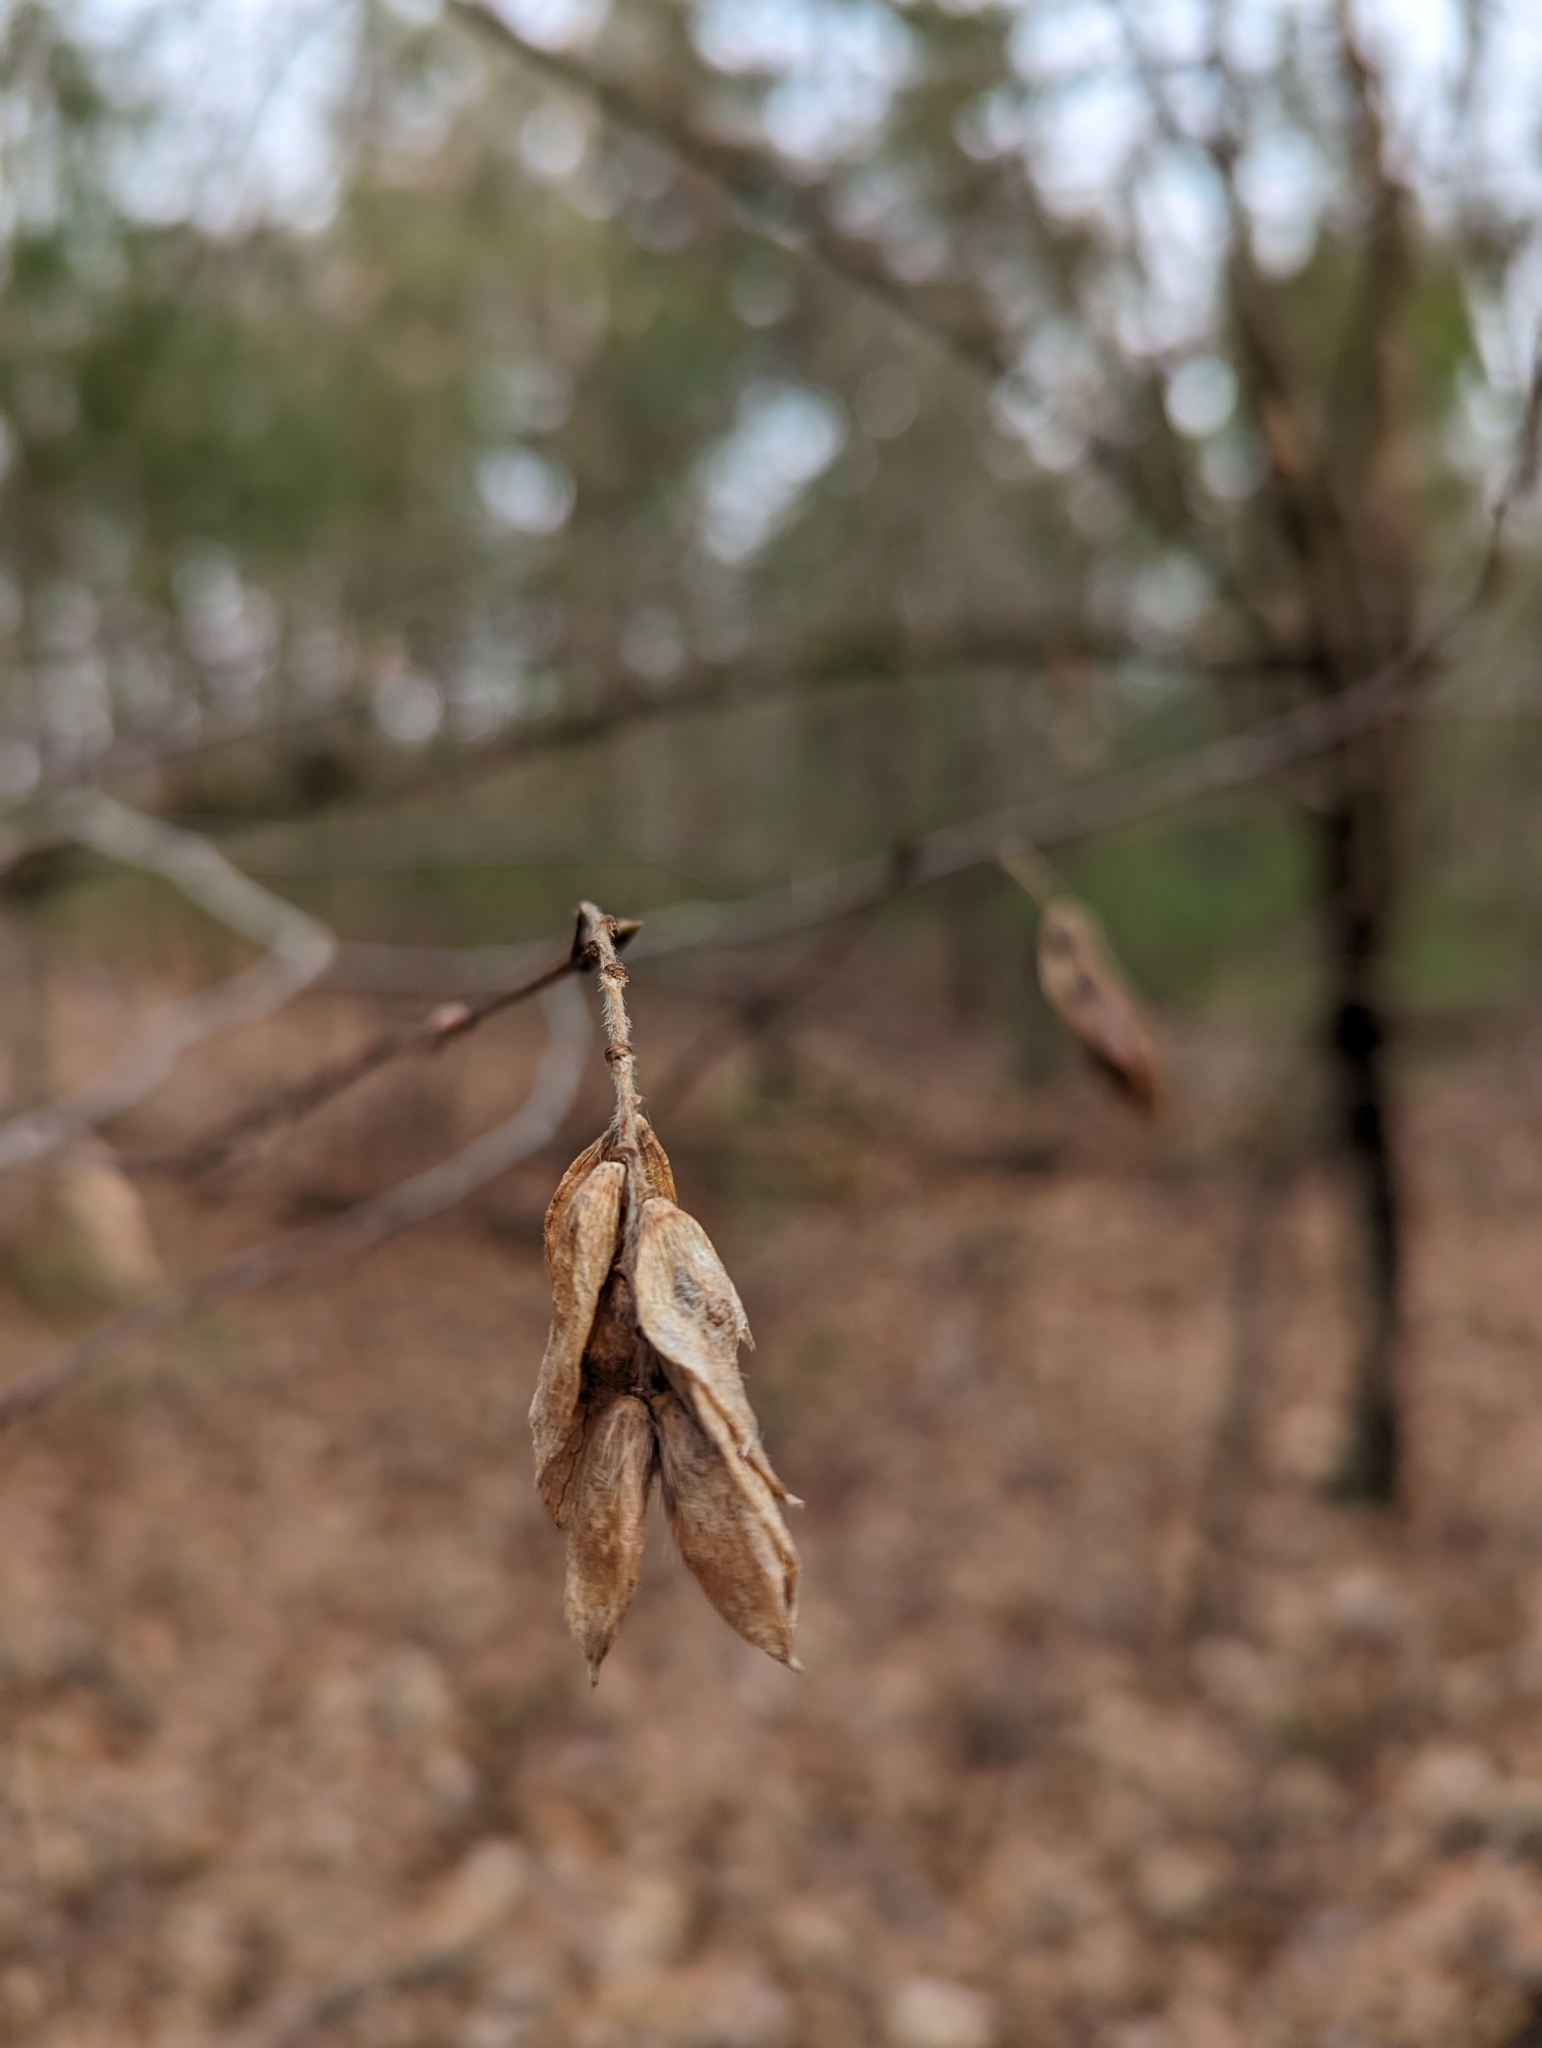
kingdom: Plantae
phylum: Tracheophyta
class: Magnoliopsida
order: Fagales
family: Betulaceae
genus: Ostrya
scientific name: Ostrya virginiana
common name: Ironwood
